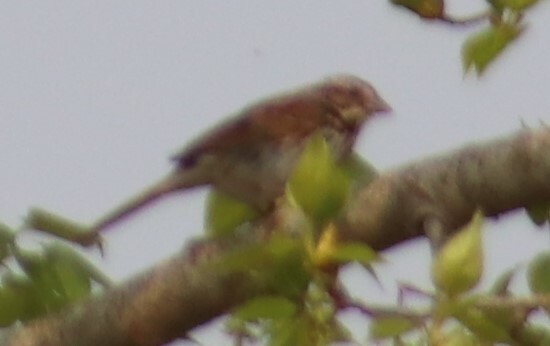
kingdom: Animalia
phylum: Chordata
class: Aves
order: Passeriformes
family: Passerellidae
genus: Melospiza
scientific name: Melospiza melodia
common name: Song sparrow
